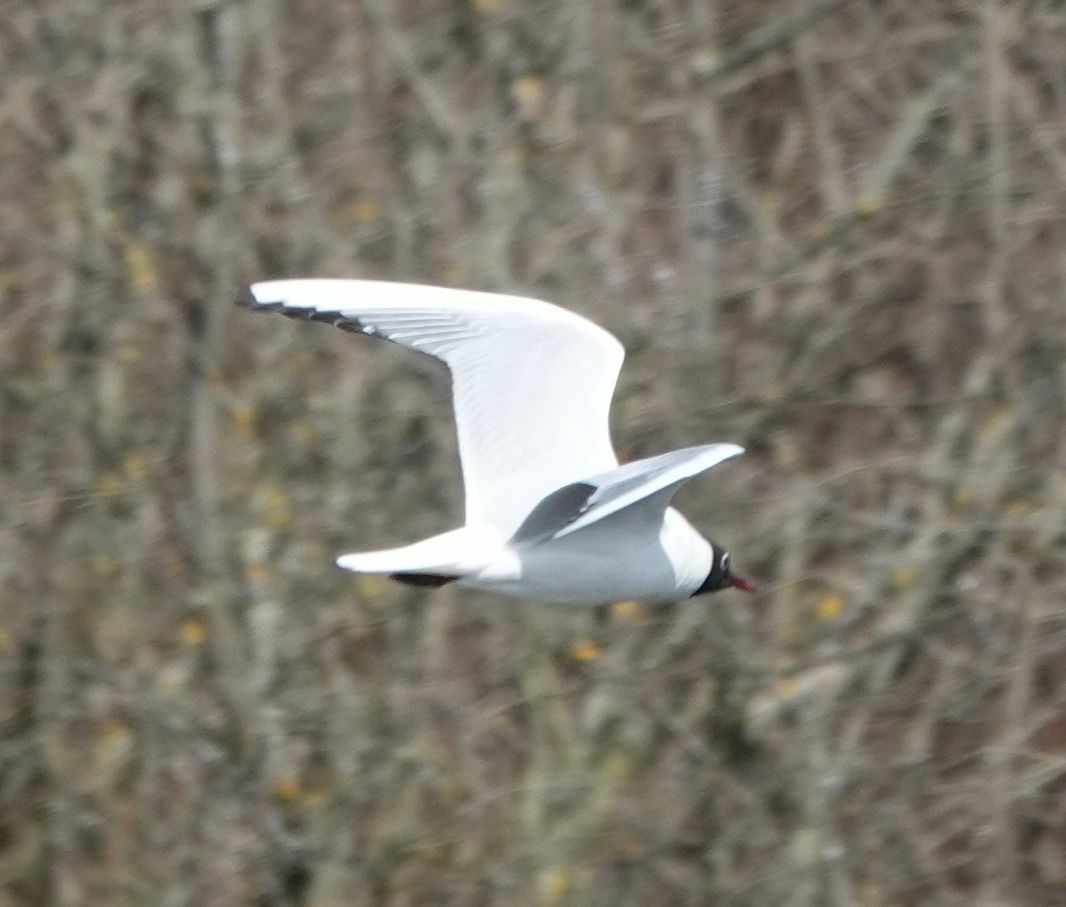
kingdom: Animalia
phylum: Chordata
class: Aves
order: Charadriiformes
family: Laridae
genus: Chroicocephalus
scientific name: Chroicocephalus ridibundus
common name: Black-headed gull
